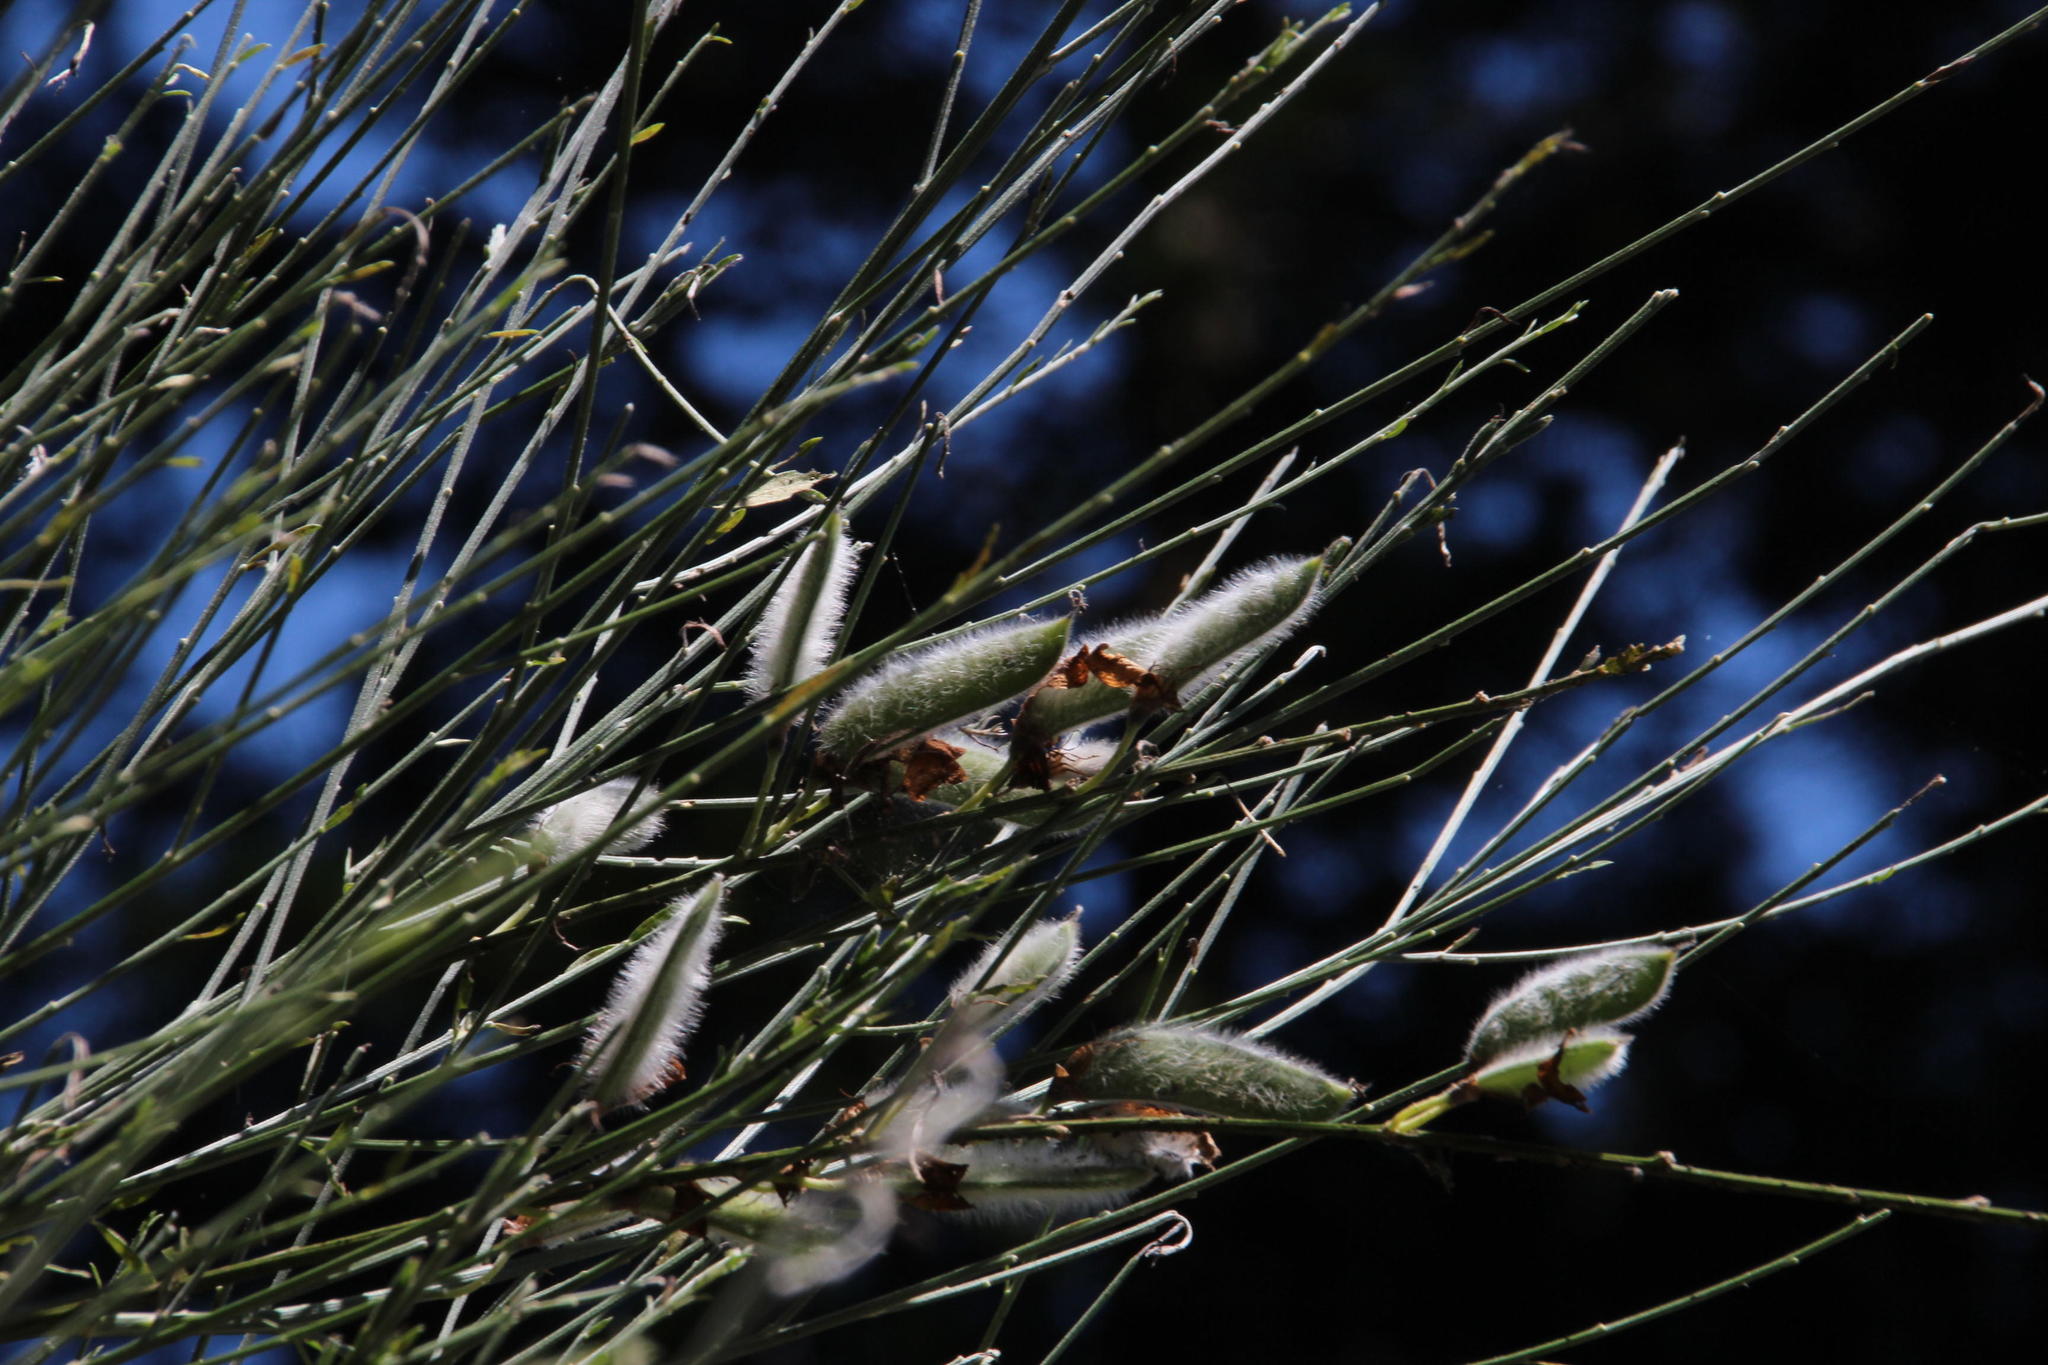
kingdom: Plantae
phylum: Tracheophyta
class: Magnoliopsida
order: Fabales
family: Fabaceae
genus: Cytisus
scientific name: Cytisus striatus
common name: Hairy-fruited broom
